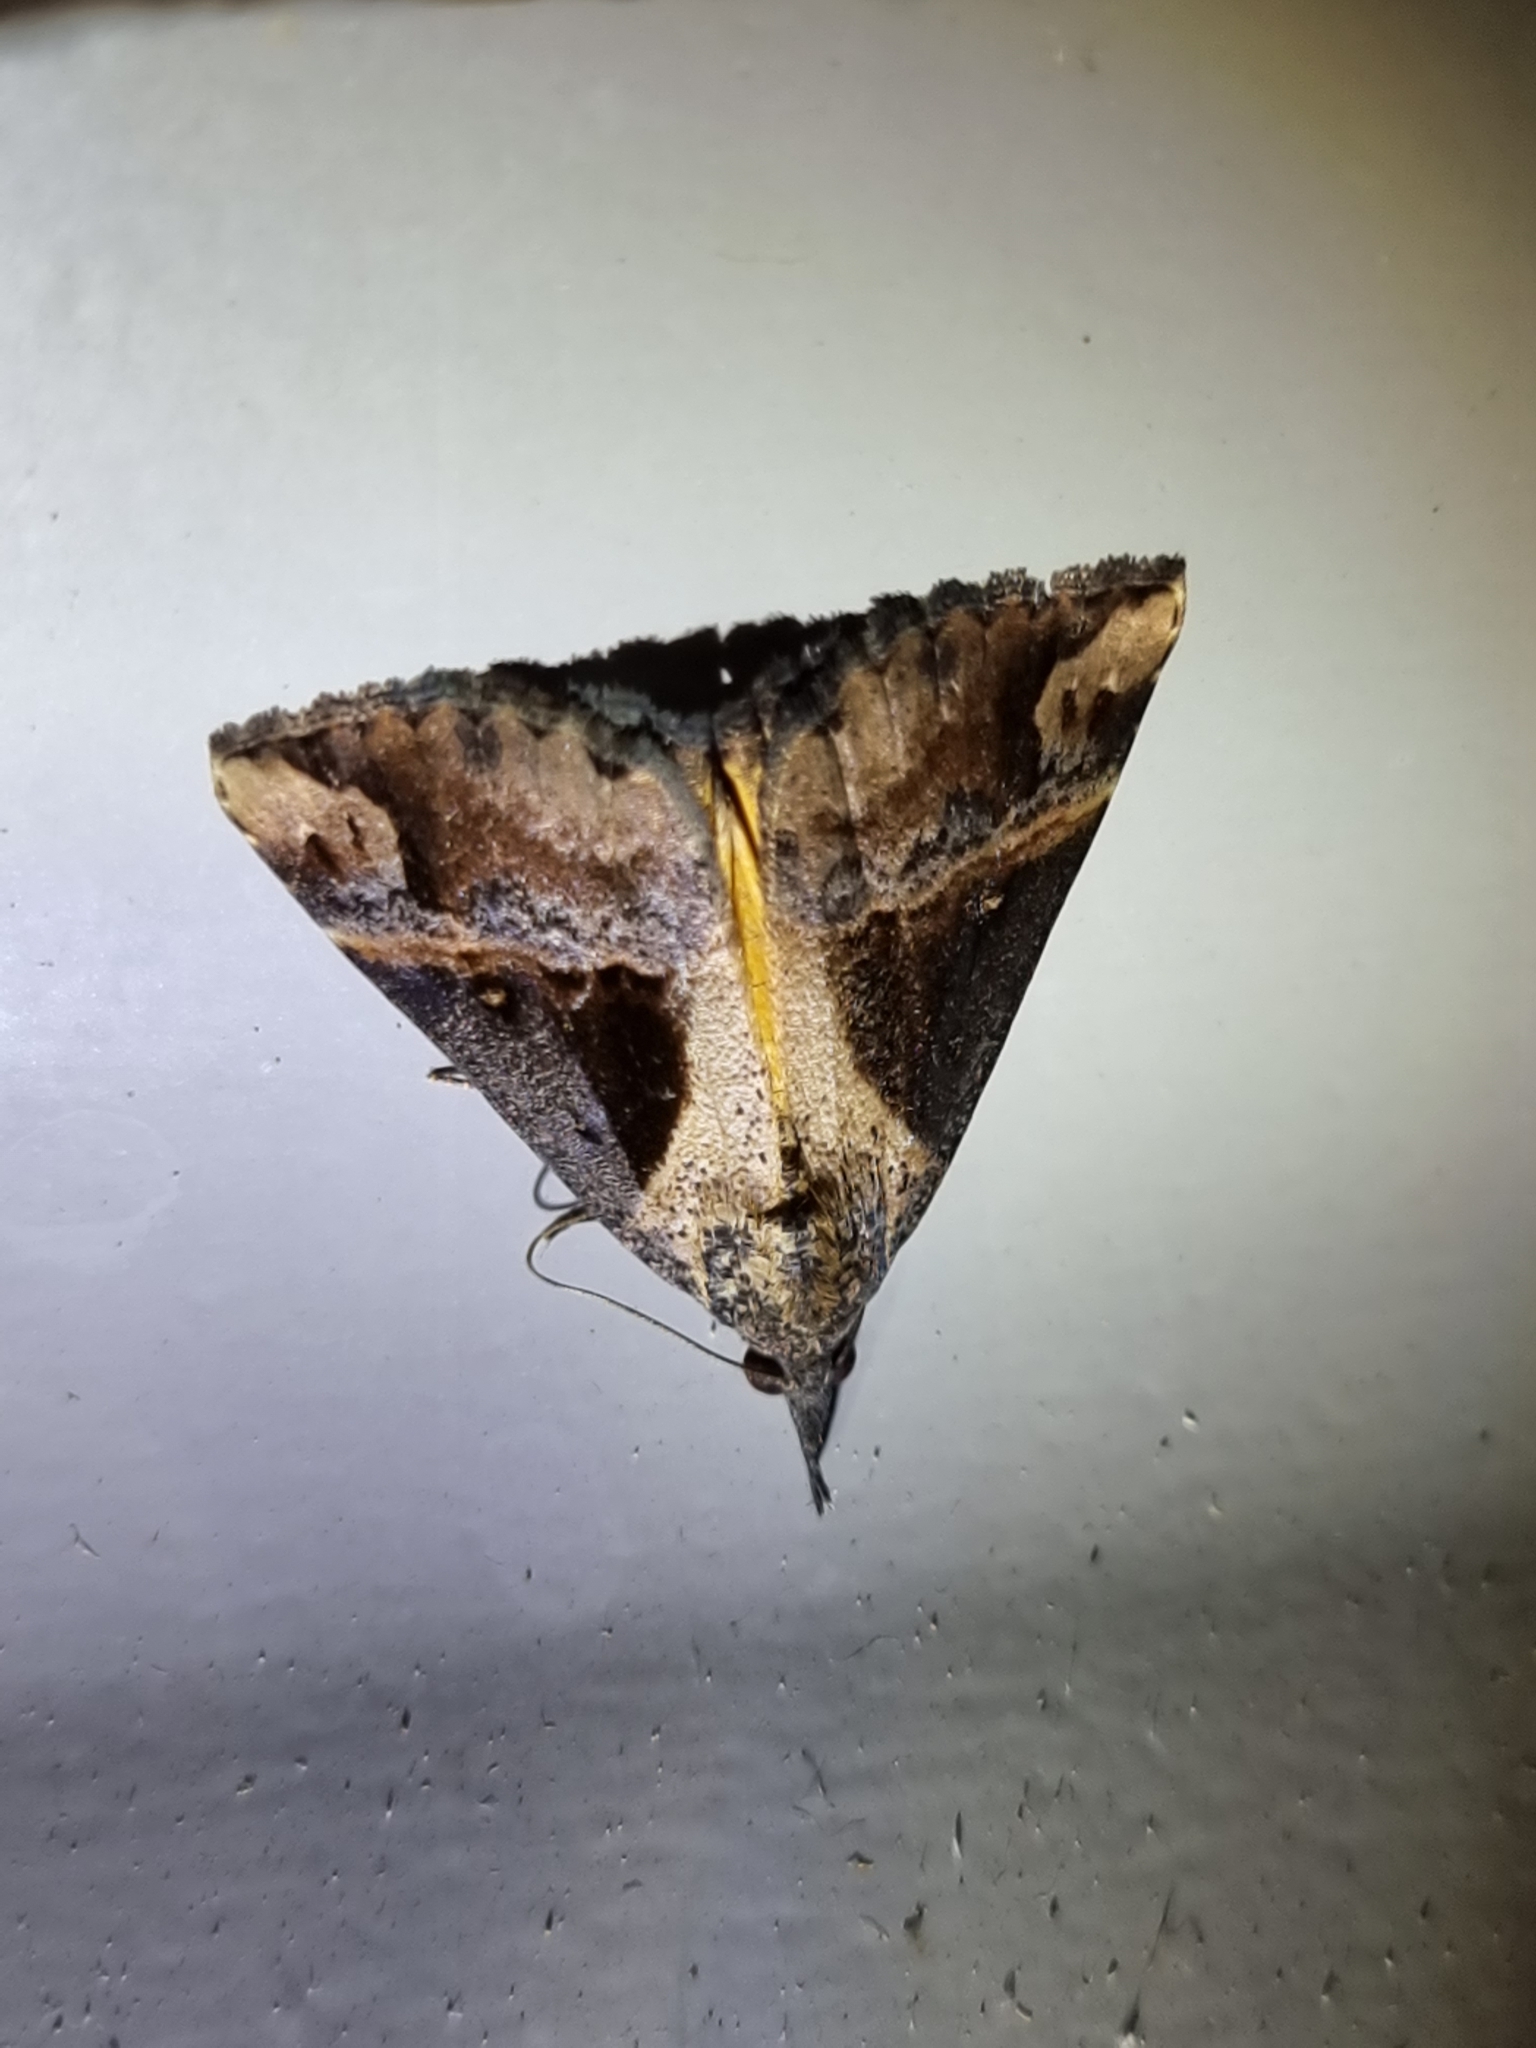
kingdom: Animalia
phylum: Arthropoda
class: Insecta
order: Lepidoptera
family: Erebidae
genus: Hypena
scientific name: Hypena Dichromia quinqualis
